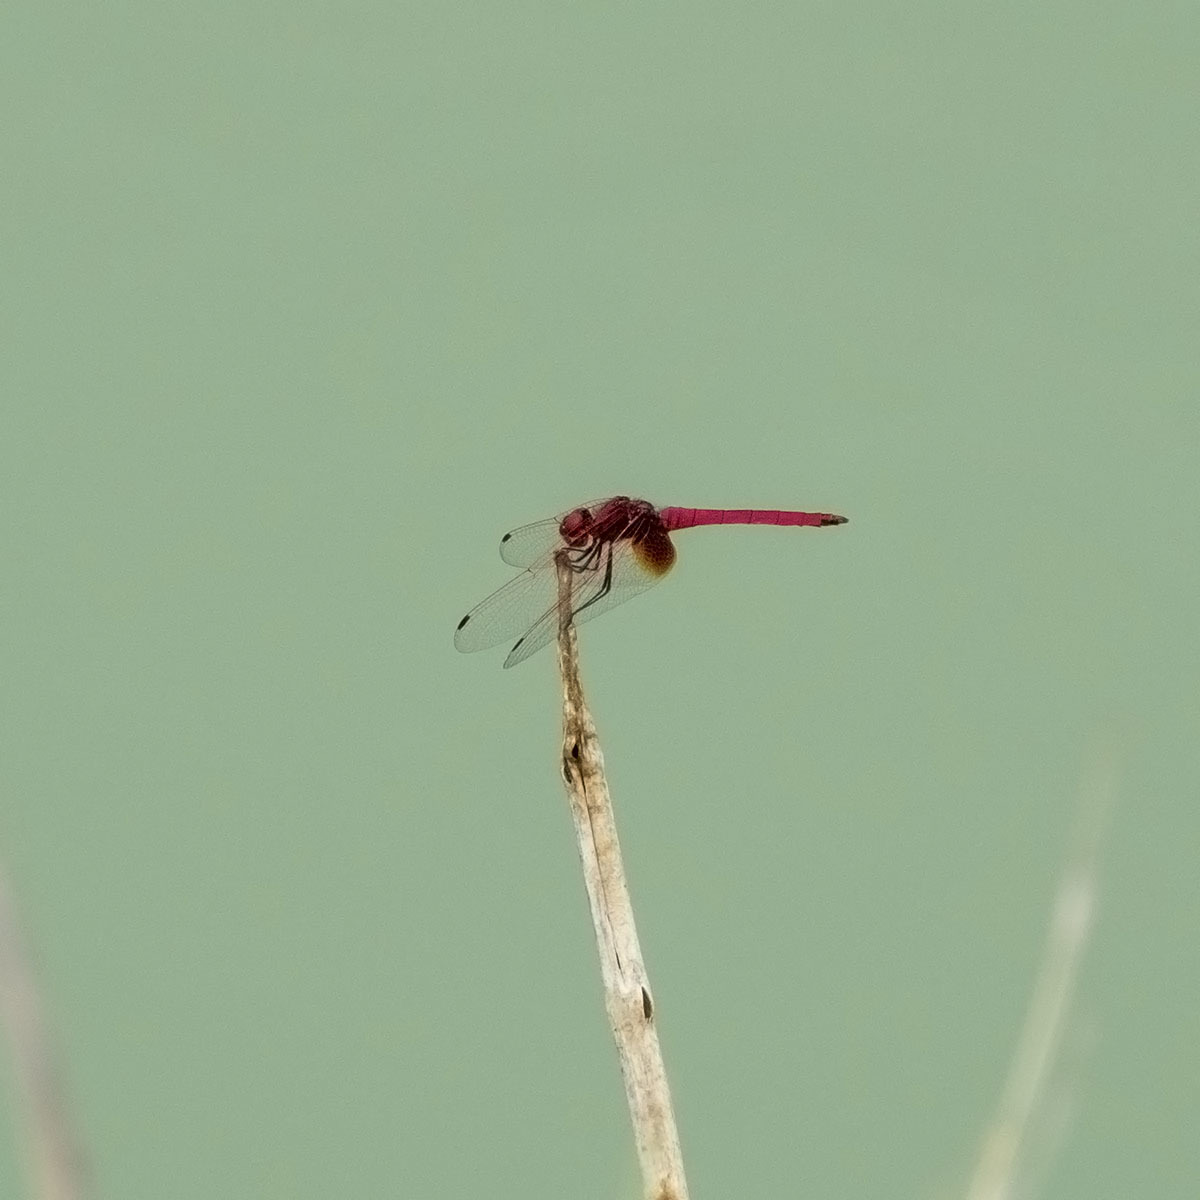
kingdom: Animalia
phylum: Arthropoda
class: Insecta
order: Odonata
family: Libellulidae
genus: Trithemis
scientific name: Trithemis aurora
